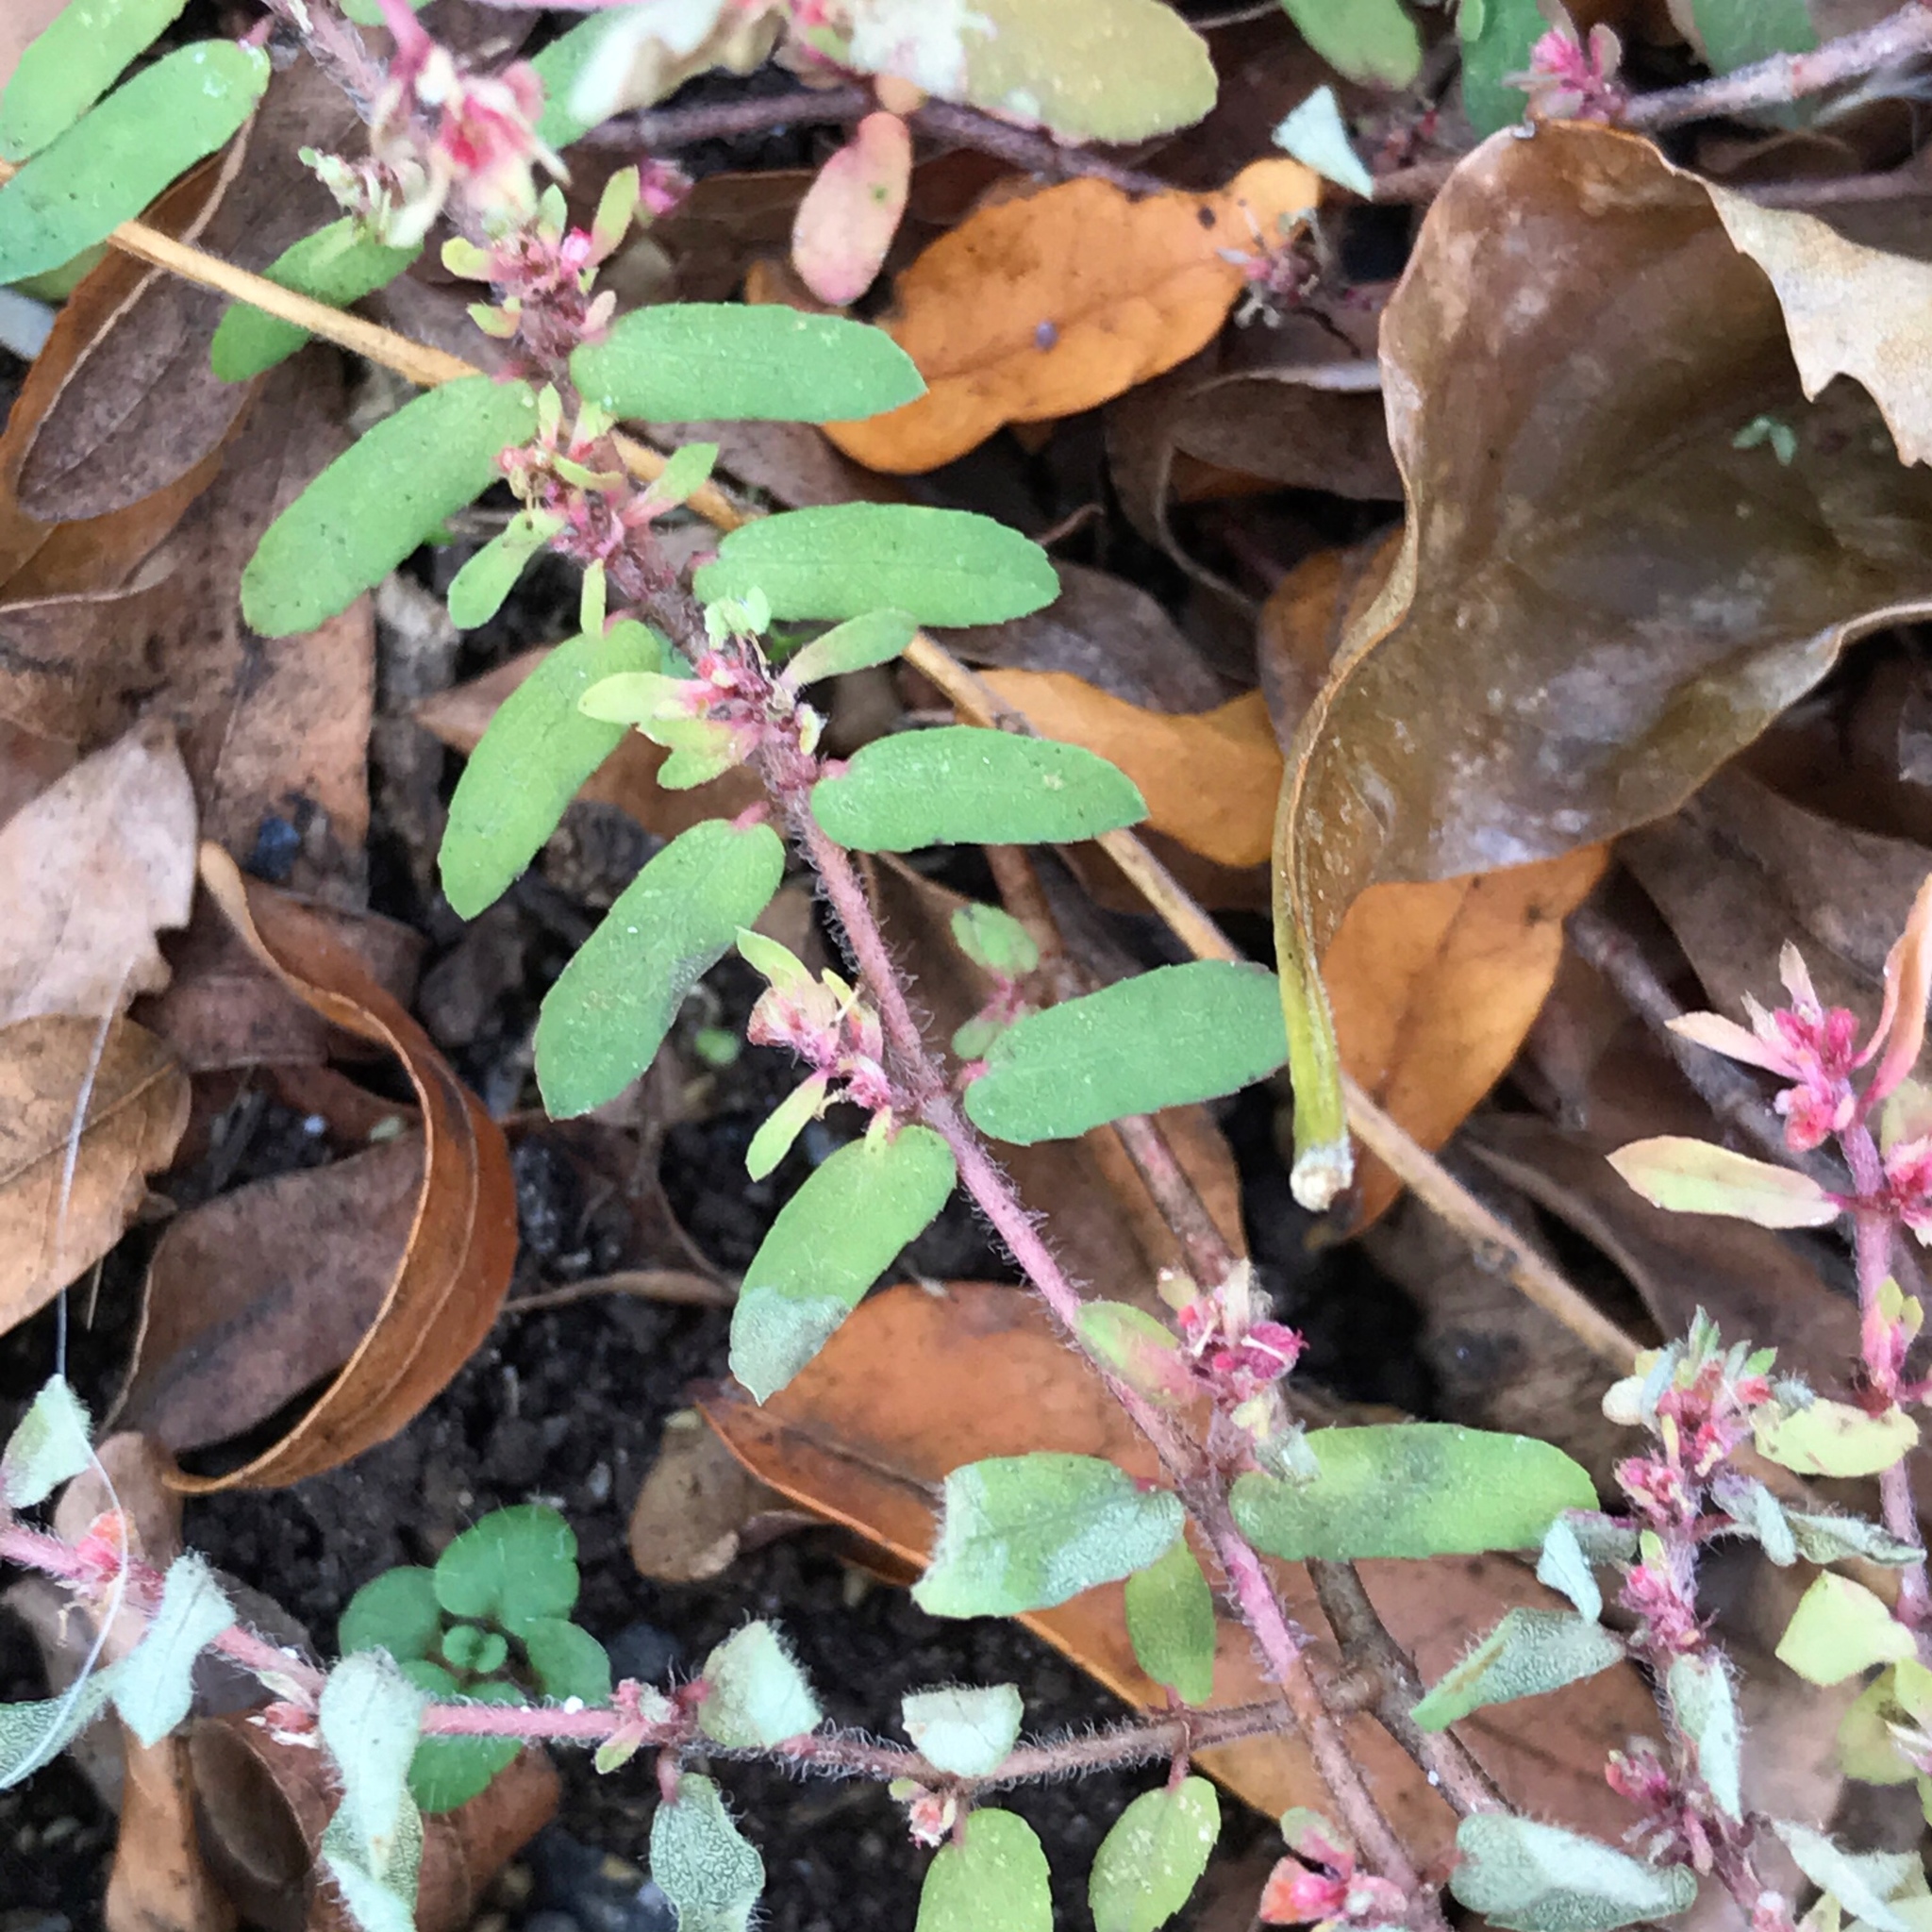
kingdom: Plantae
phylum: Tracheophyta
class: Magnoliopsida
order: Malpighiales
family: Euphorbiaceae
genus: Euphorbia
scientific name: Euphorbia maculata
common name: Spotted spurge
